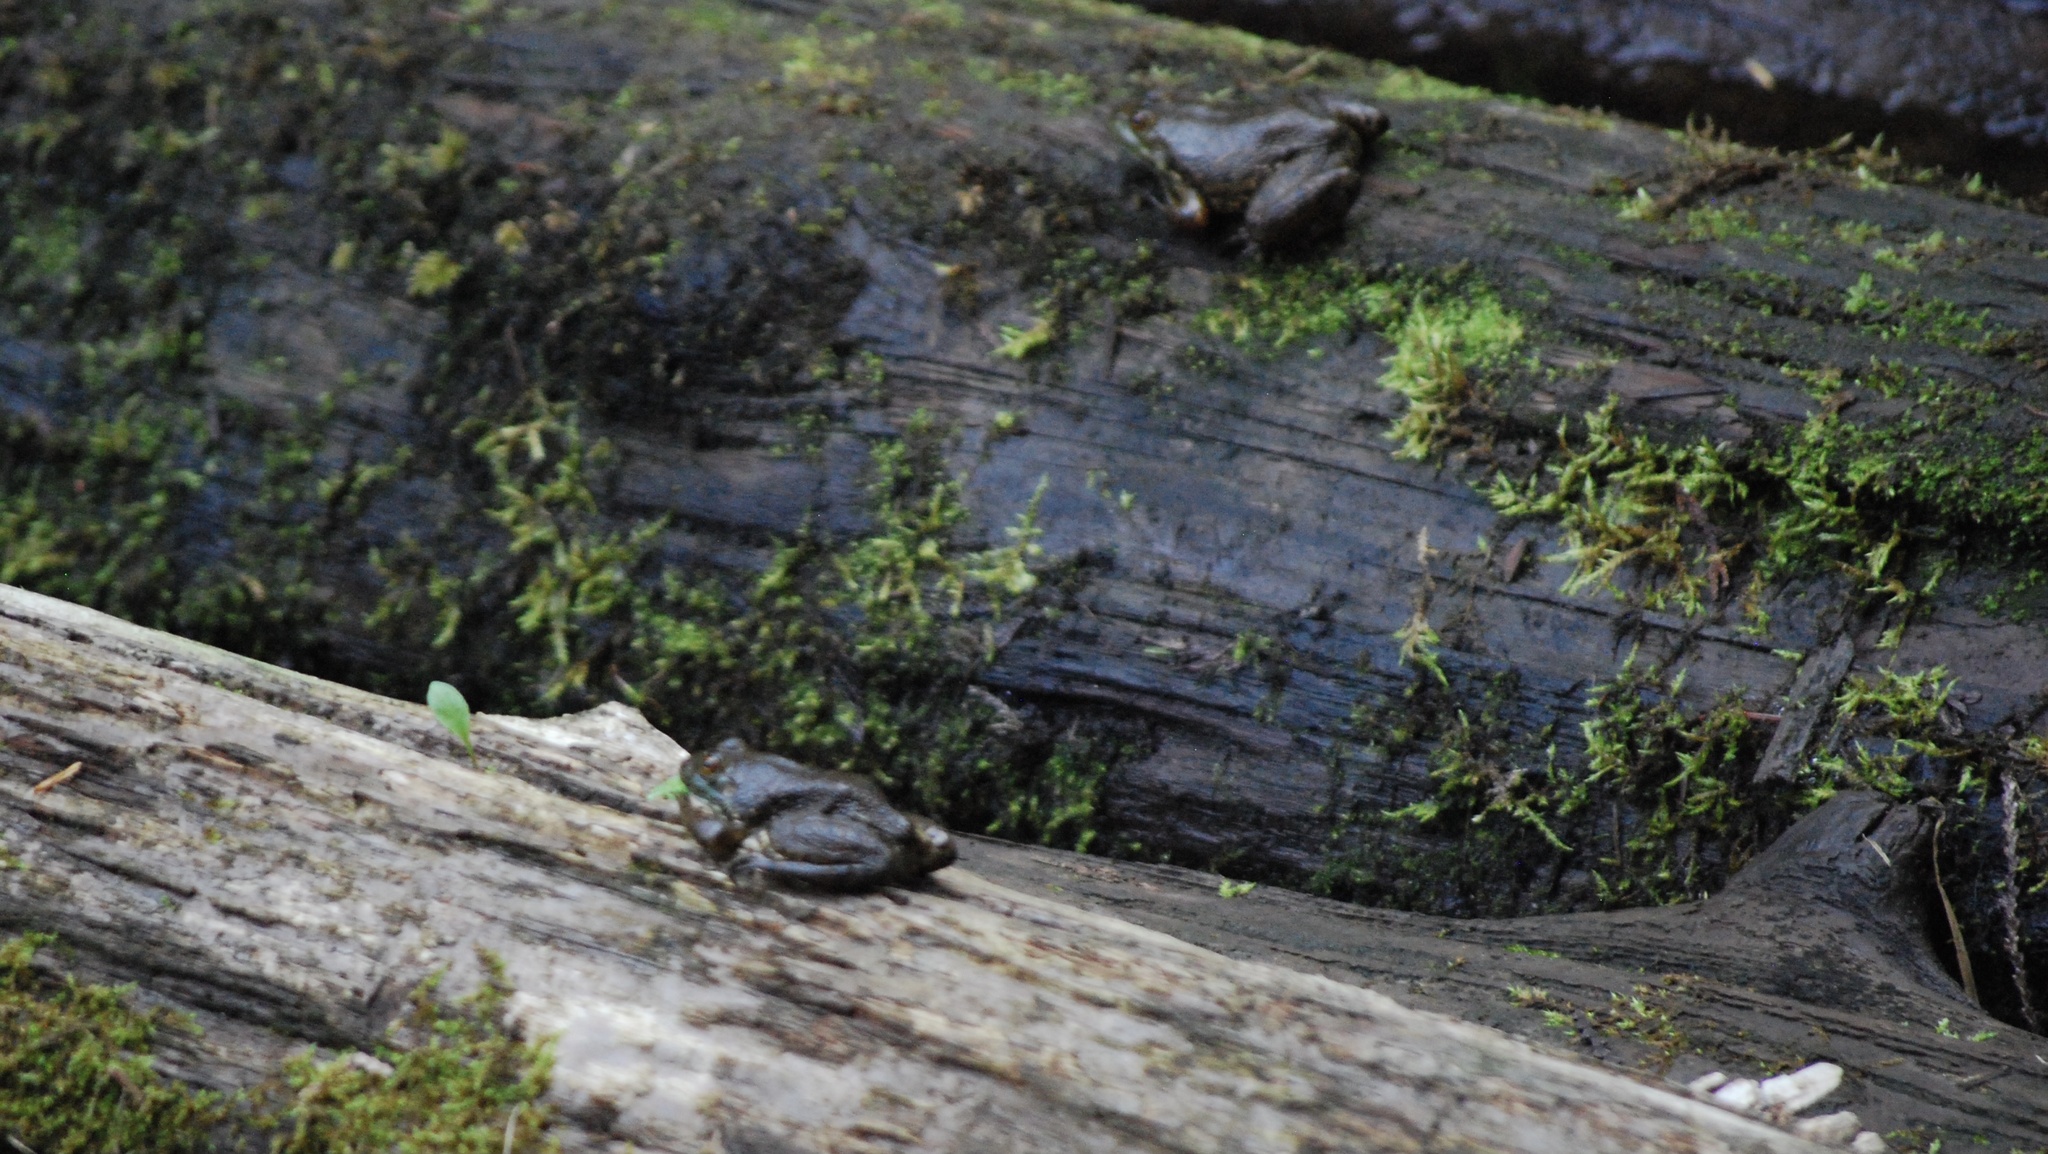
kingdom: Animalia
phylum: Chordata
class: Amphibia
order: Anura
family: Ranidae
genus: Lithobates
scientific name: Lithobates catesbeianus
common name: American bullfrog
